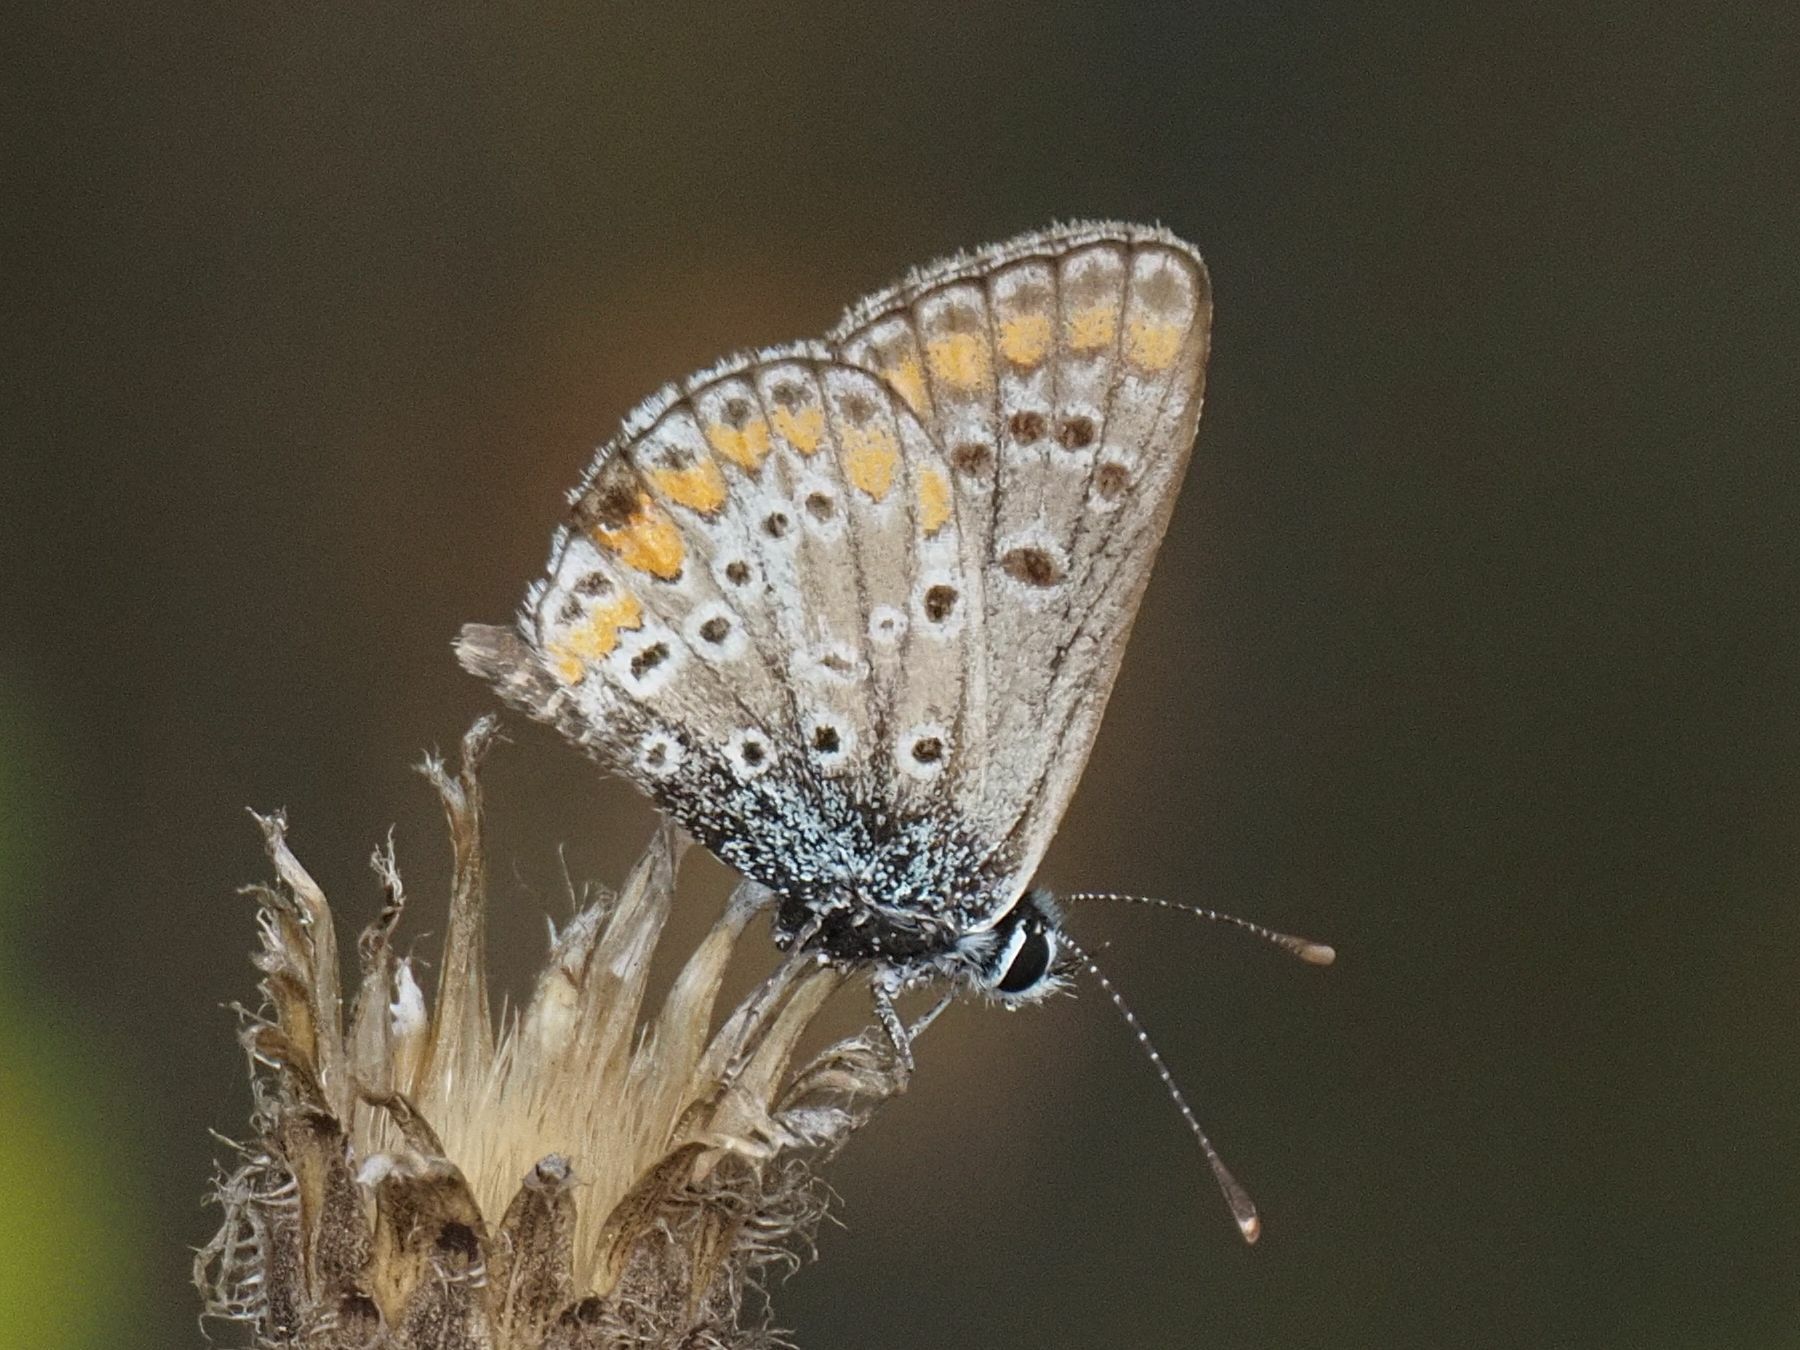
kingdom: Animalia
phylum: Arthropoda
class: Insecta
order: Lepidoptera
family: Lycaenidae
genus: Aricia
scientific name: Aricia agestis
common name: Brown argus
